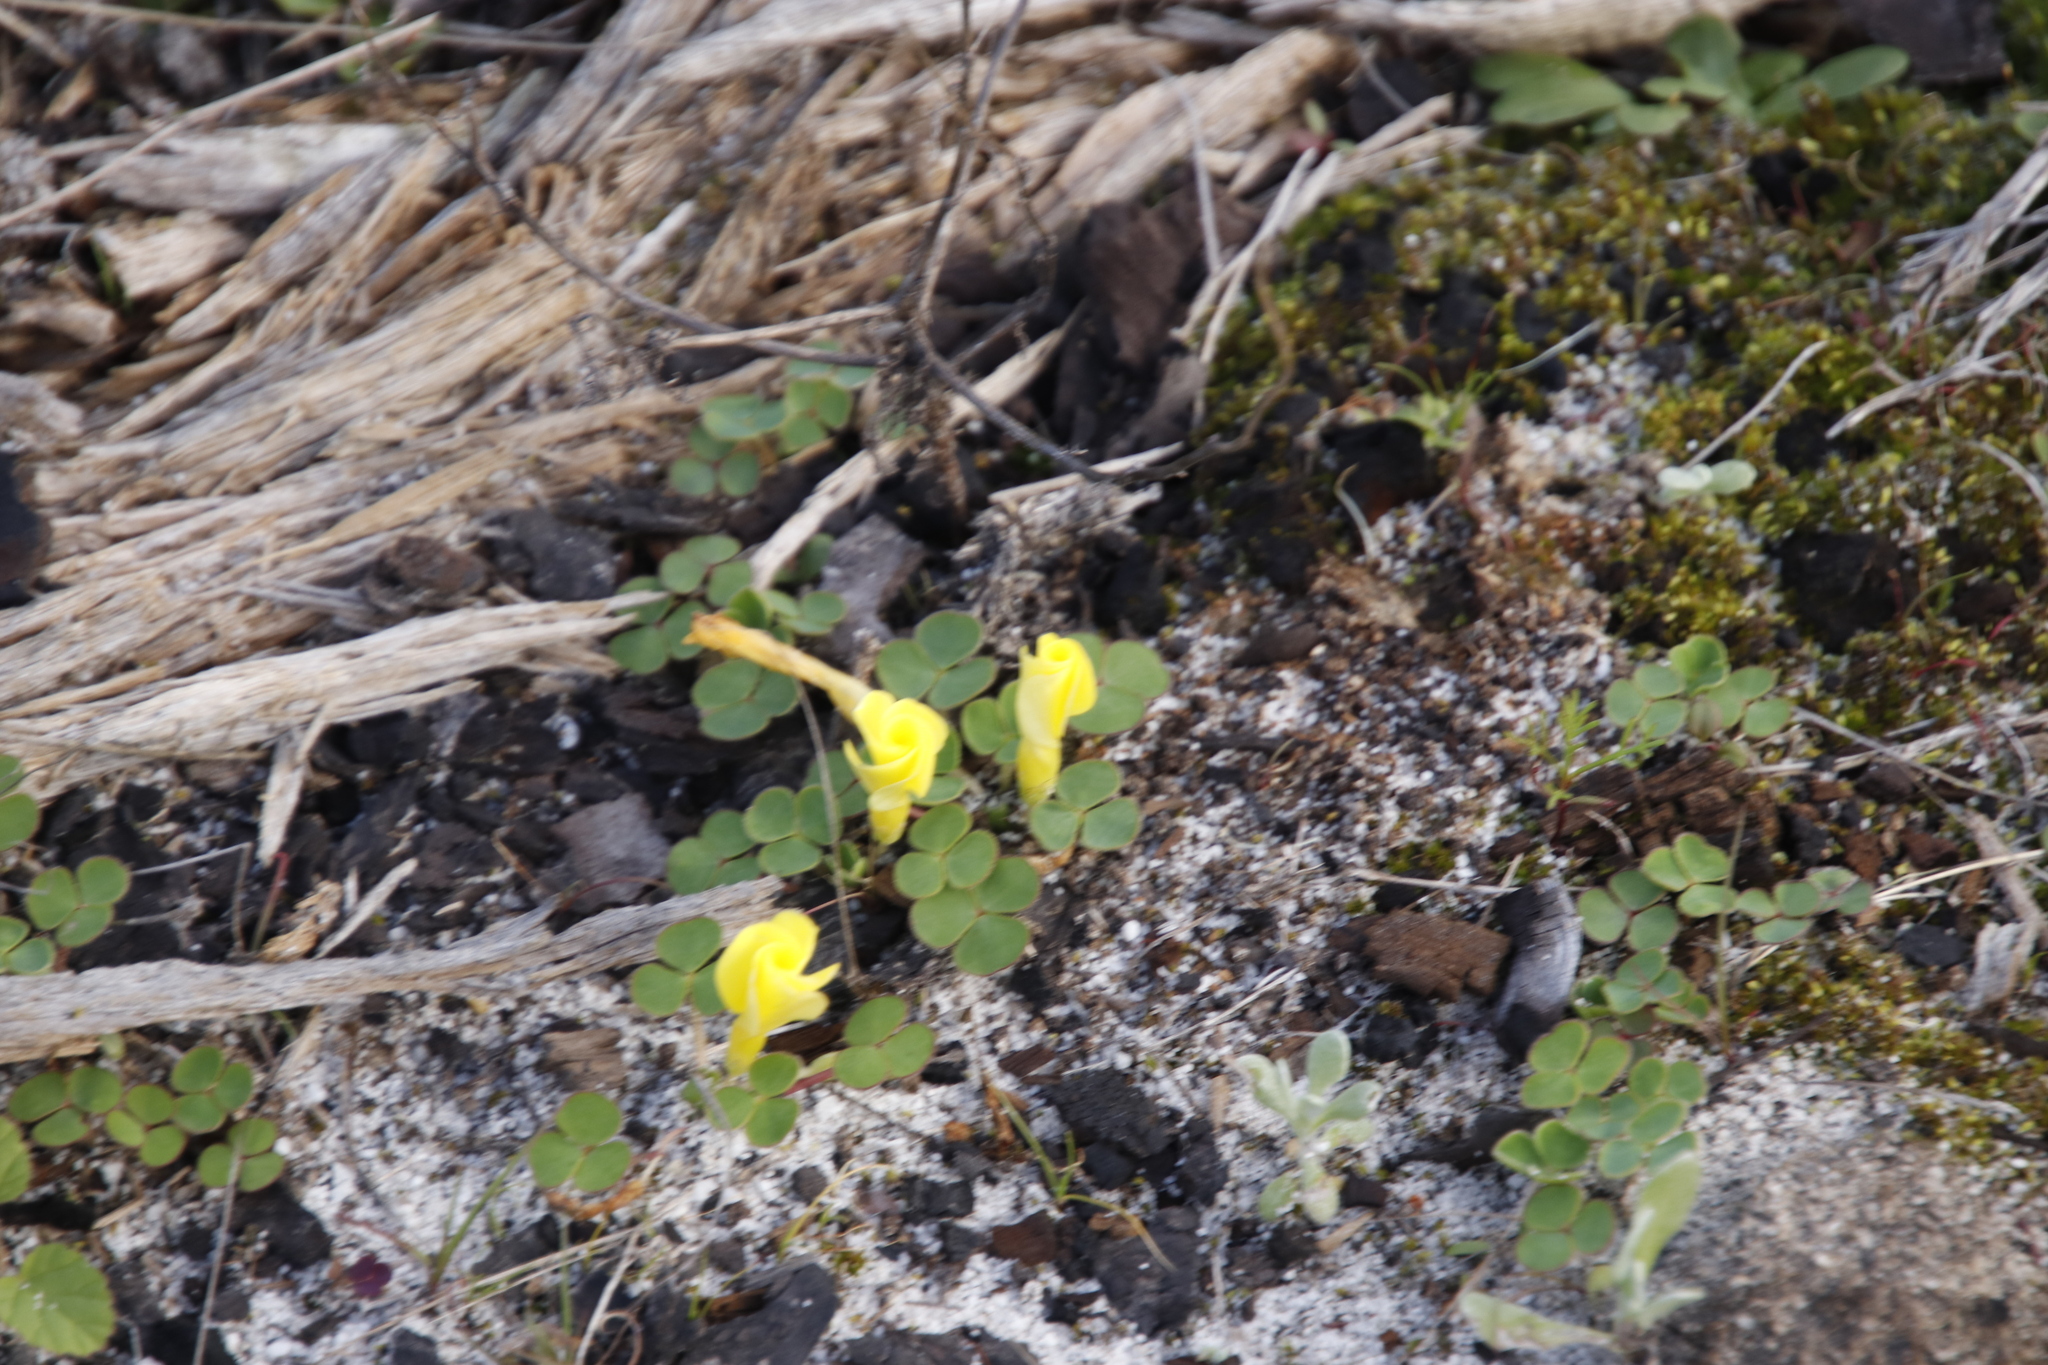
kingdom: Plantae
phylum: Tracheophyta
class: Magnoliopsida
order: Oxalidales
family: Oxalidaceae
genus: Oxalis
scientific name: Oxalis luteola
